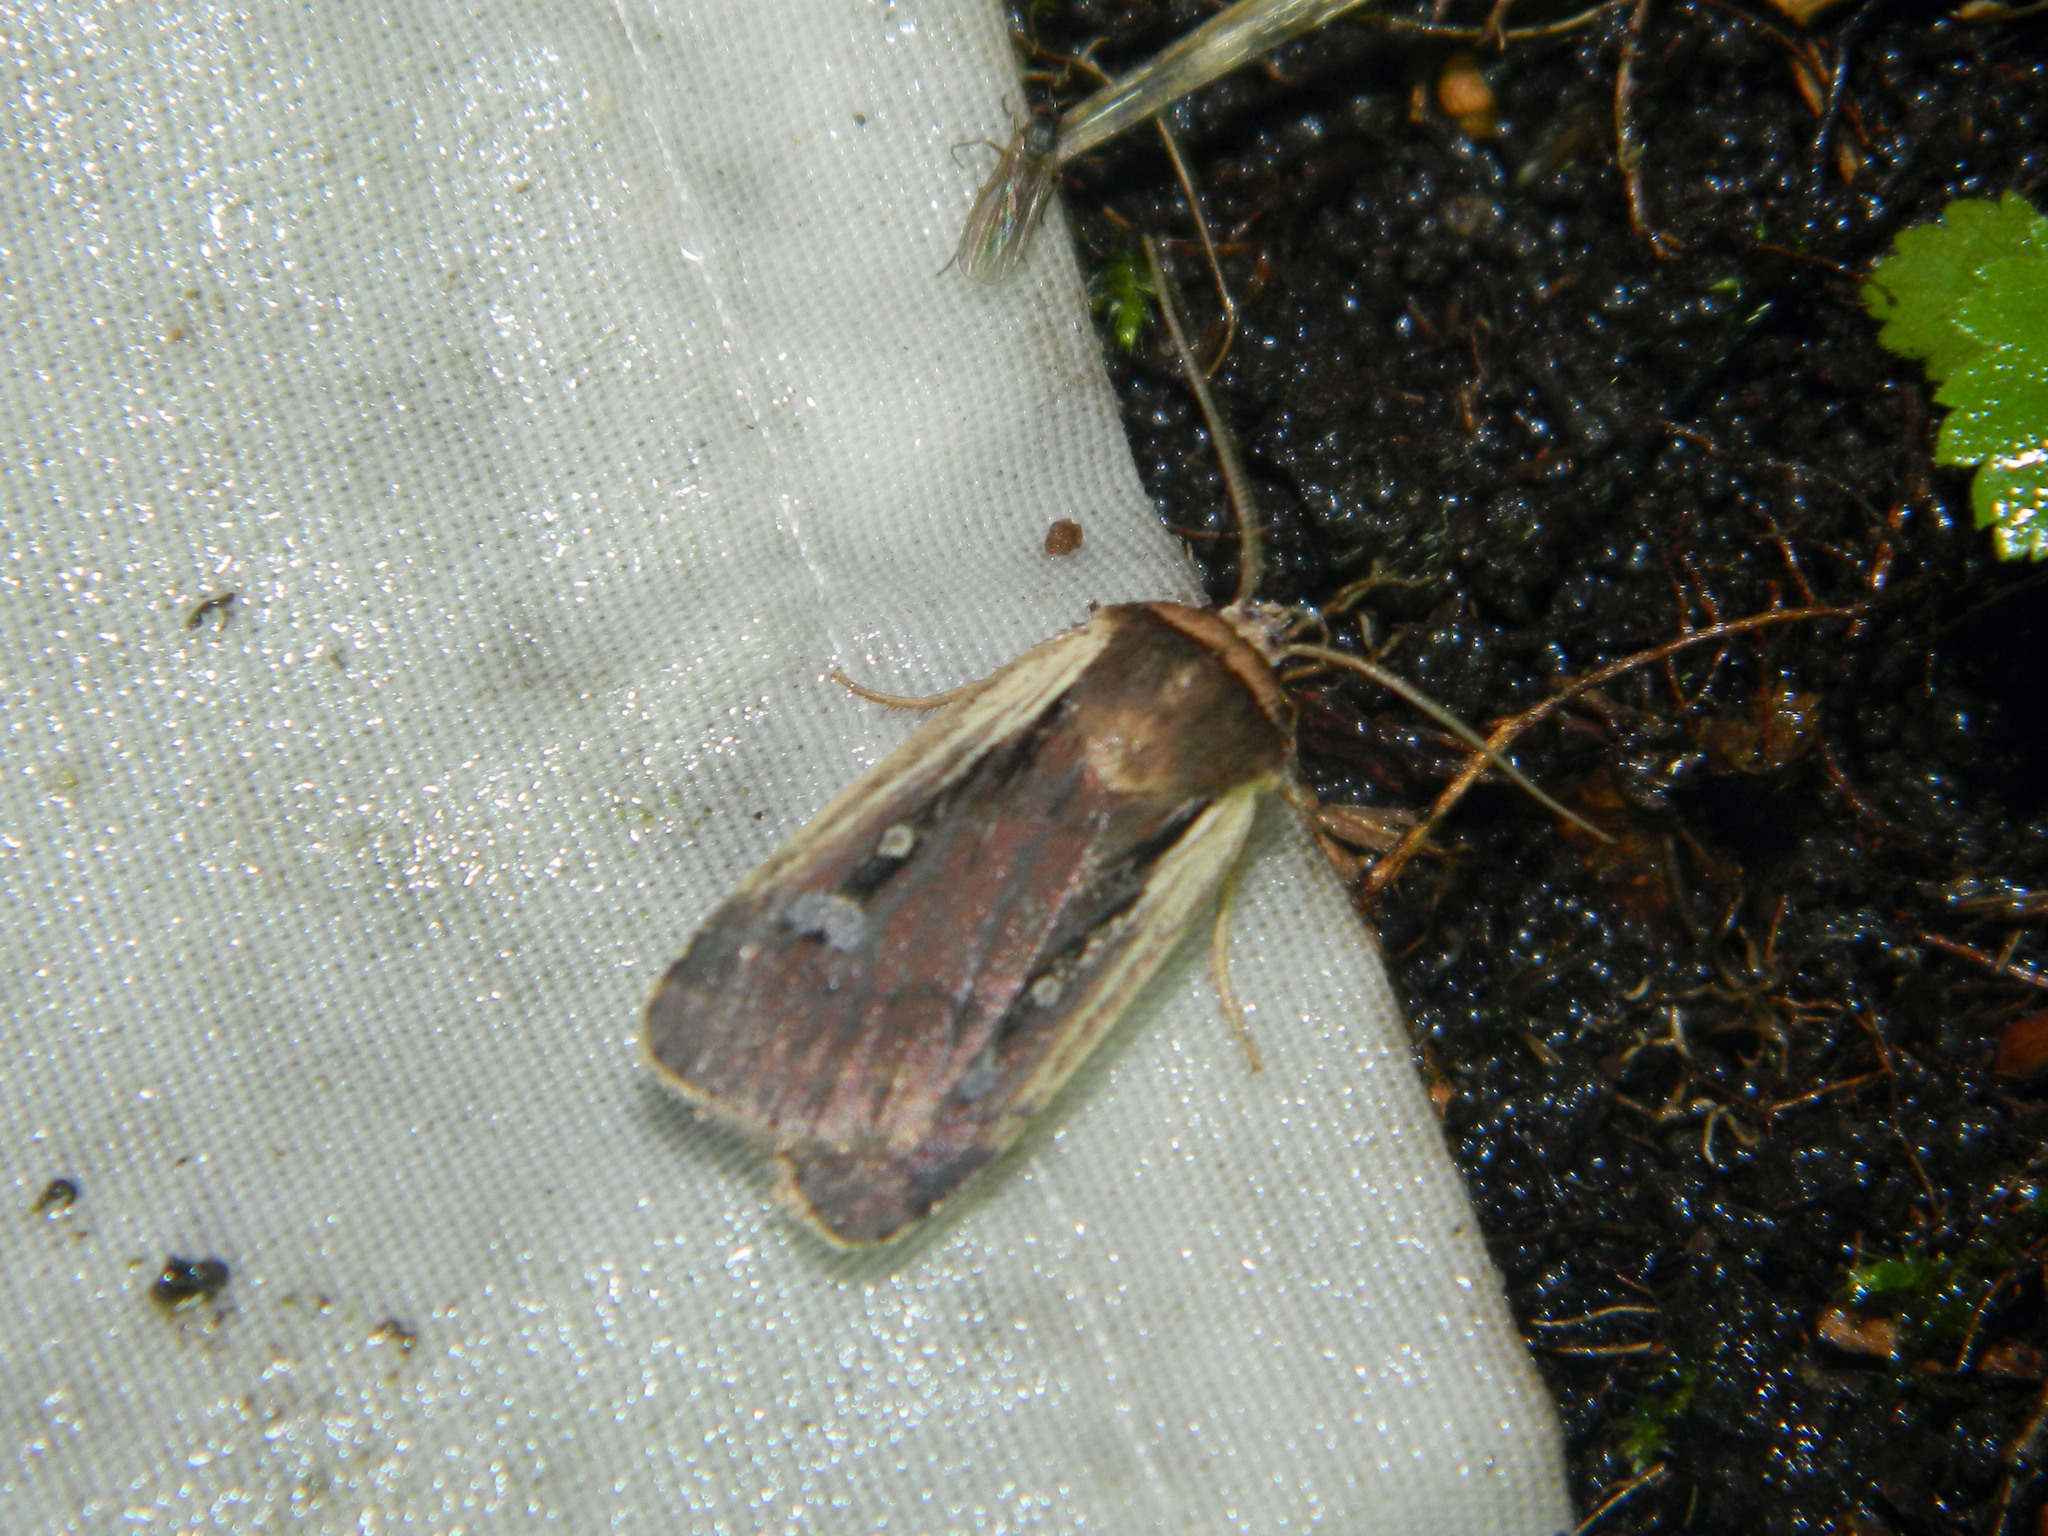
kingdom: Animalia
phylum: Arthropoda
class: Insecta
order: Lepidoptera
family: Noctuidae
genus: Ochropleura
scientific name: Ochropleura implecta
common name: Flame-shouldered dart
